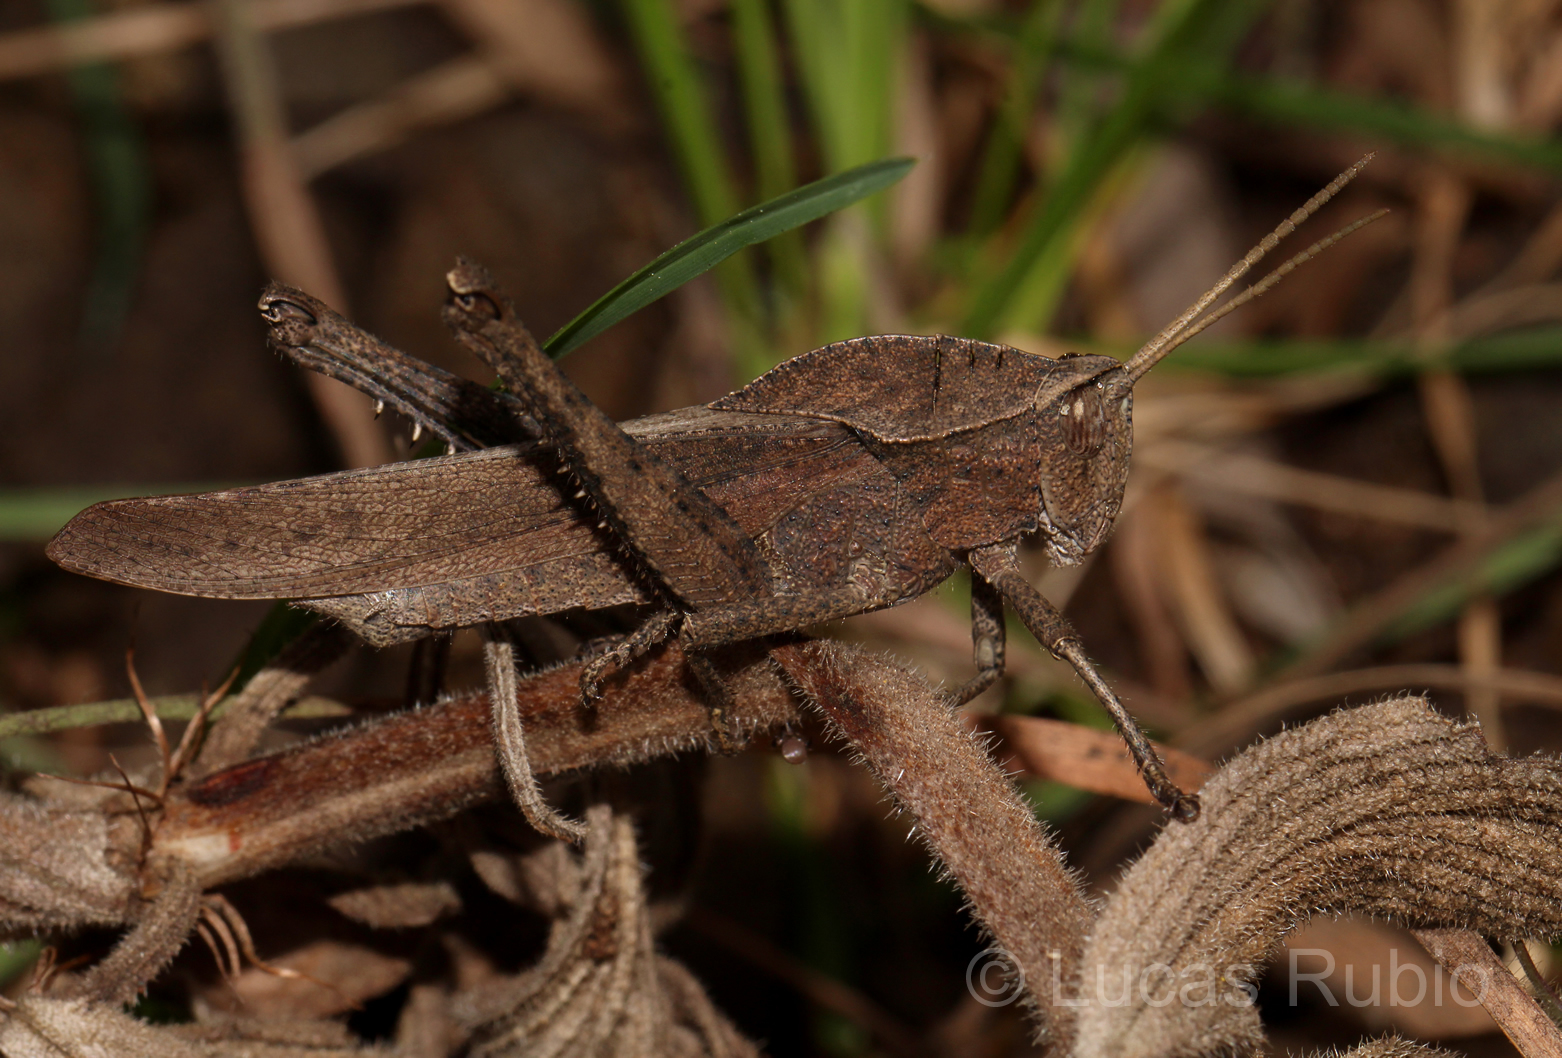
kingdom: Animalia
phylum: Arthropoda
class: Insecta
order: Orthoptera
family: Romaleidae
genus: Xyleus
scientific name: Xyleus discoideus
